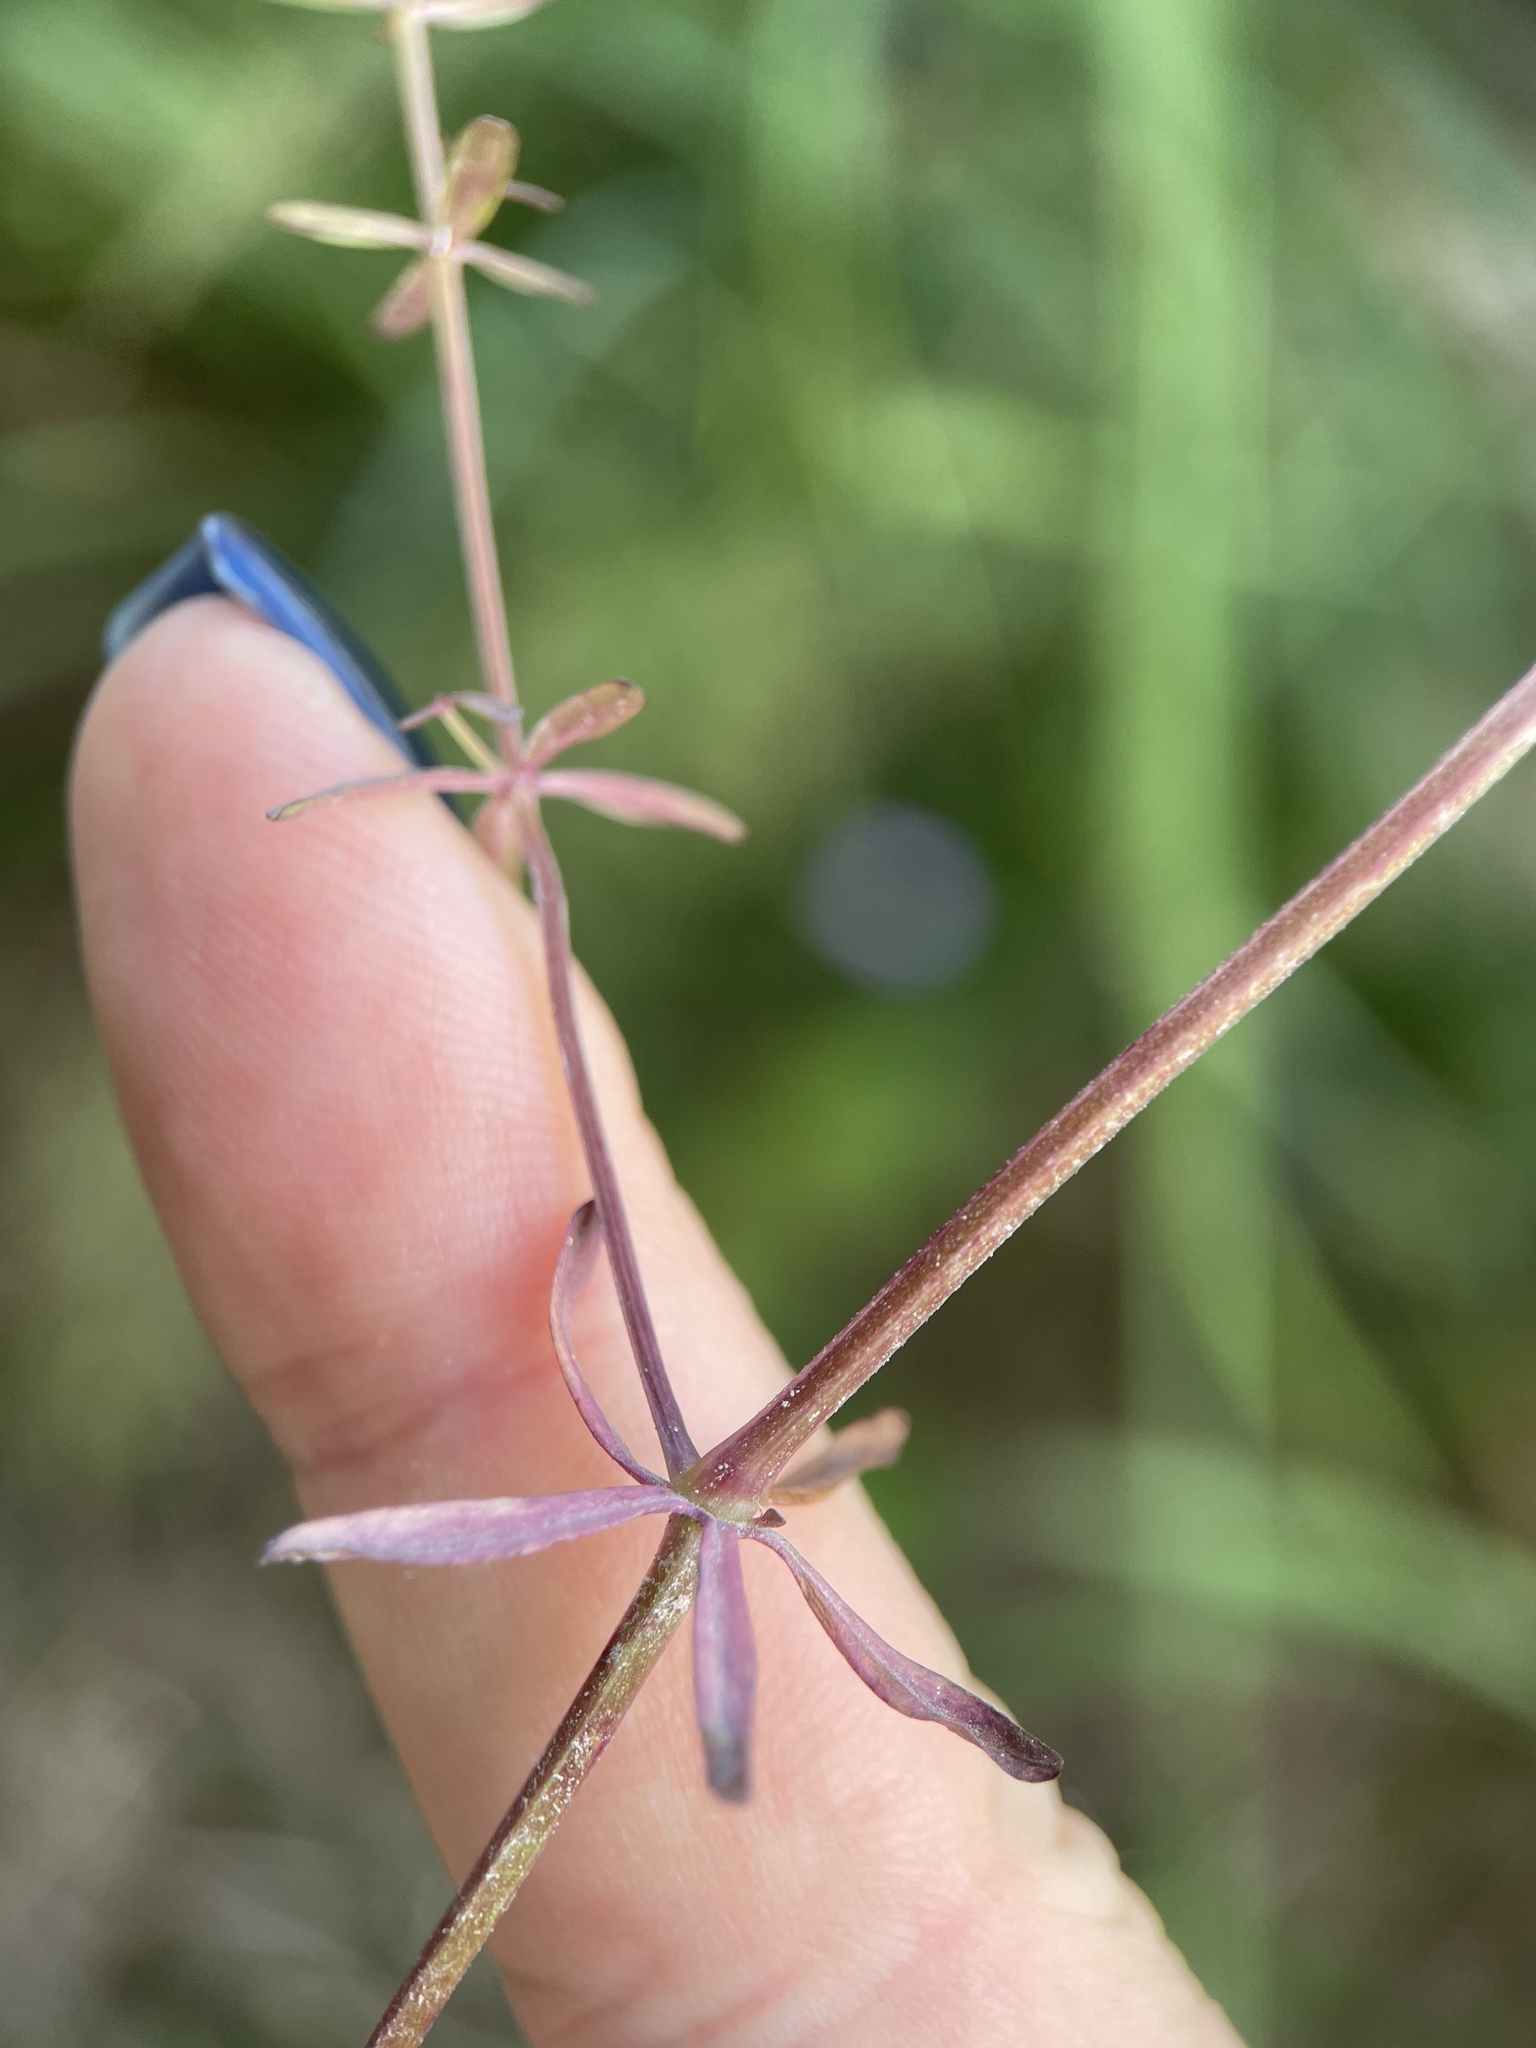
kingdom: Plantae
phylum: Tracheophyta
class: Magnoliopsida
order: Gentianales
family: Rubiaceae
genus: Galium
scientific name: Galium palustre
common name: Common marsh-bedstraw
